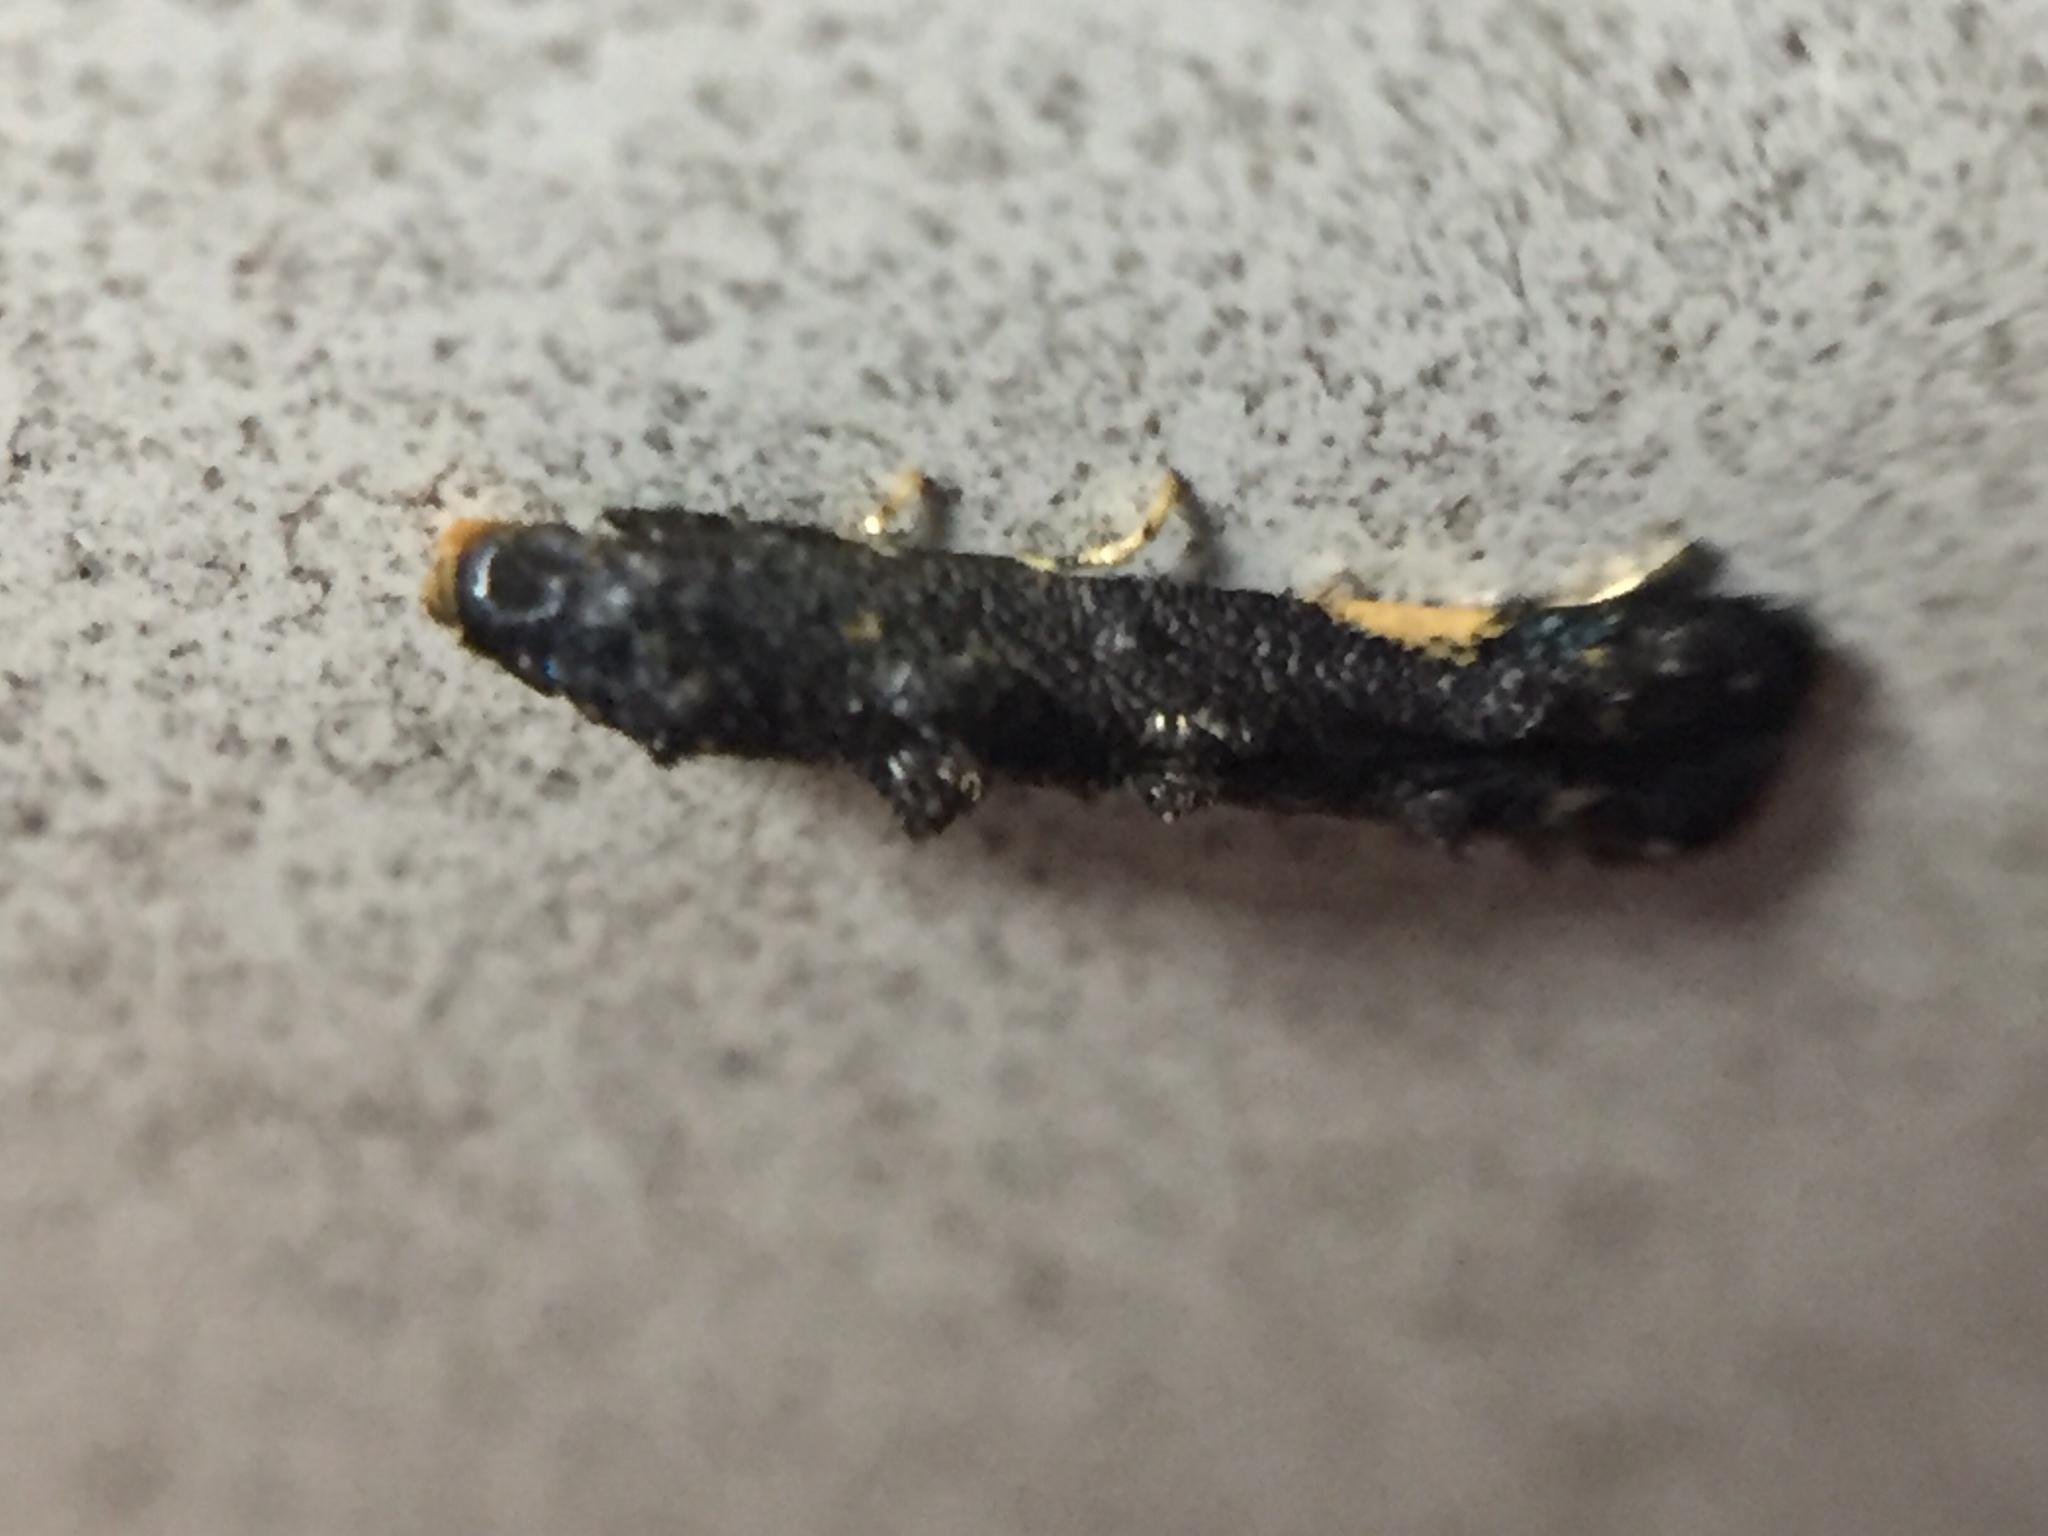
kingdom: Animalia
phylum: Arthropoda
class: Insecta
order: Lepidoptera
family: Elachistidae
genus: Microcolona
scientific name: Microcolona
